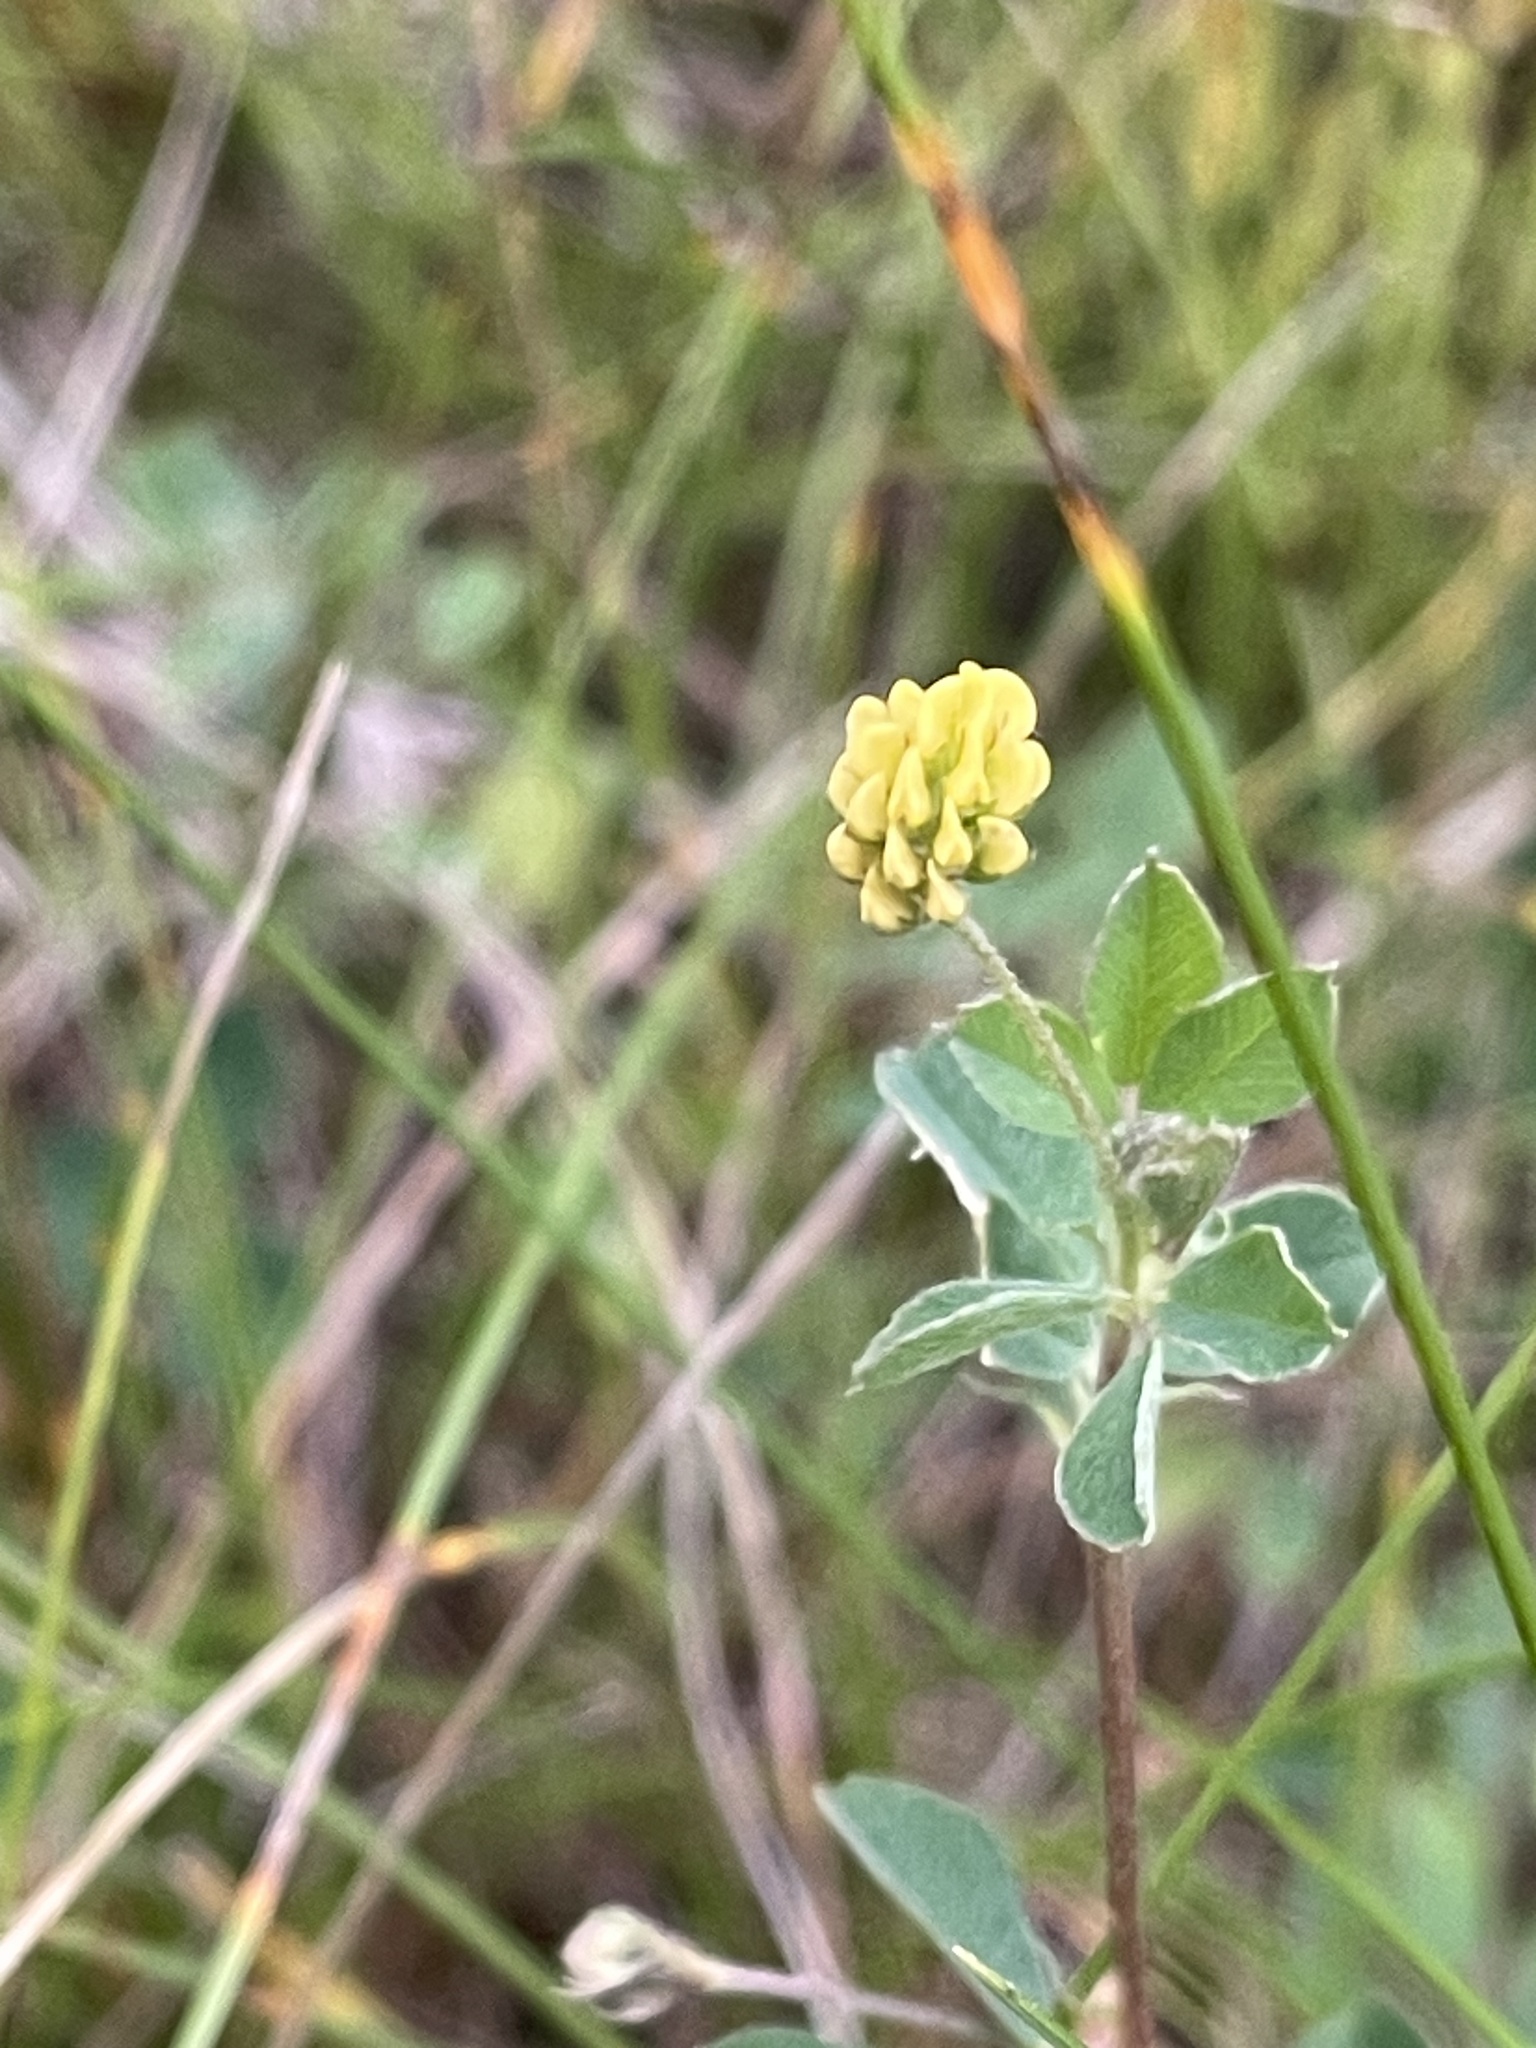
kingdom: Plantae
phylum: Tracheophyta
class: Magnoliopsida
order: Fabales
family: Fabaceae
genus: Medicago
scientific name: Medicago lupulina
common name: Black medick
